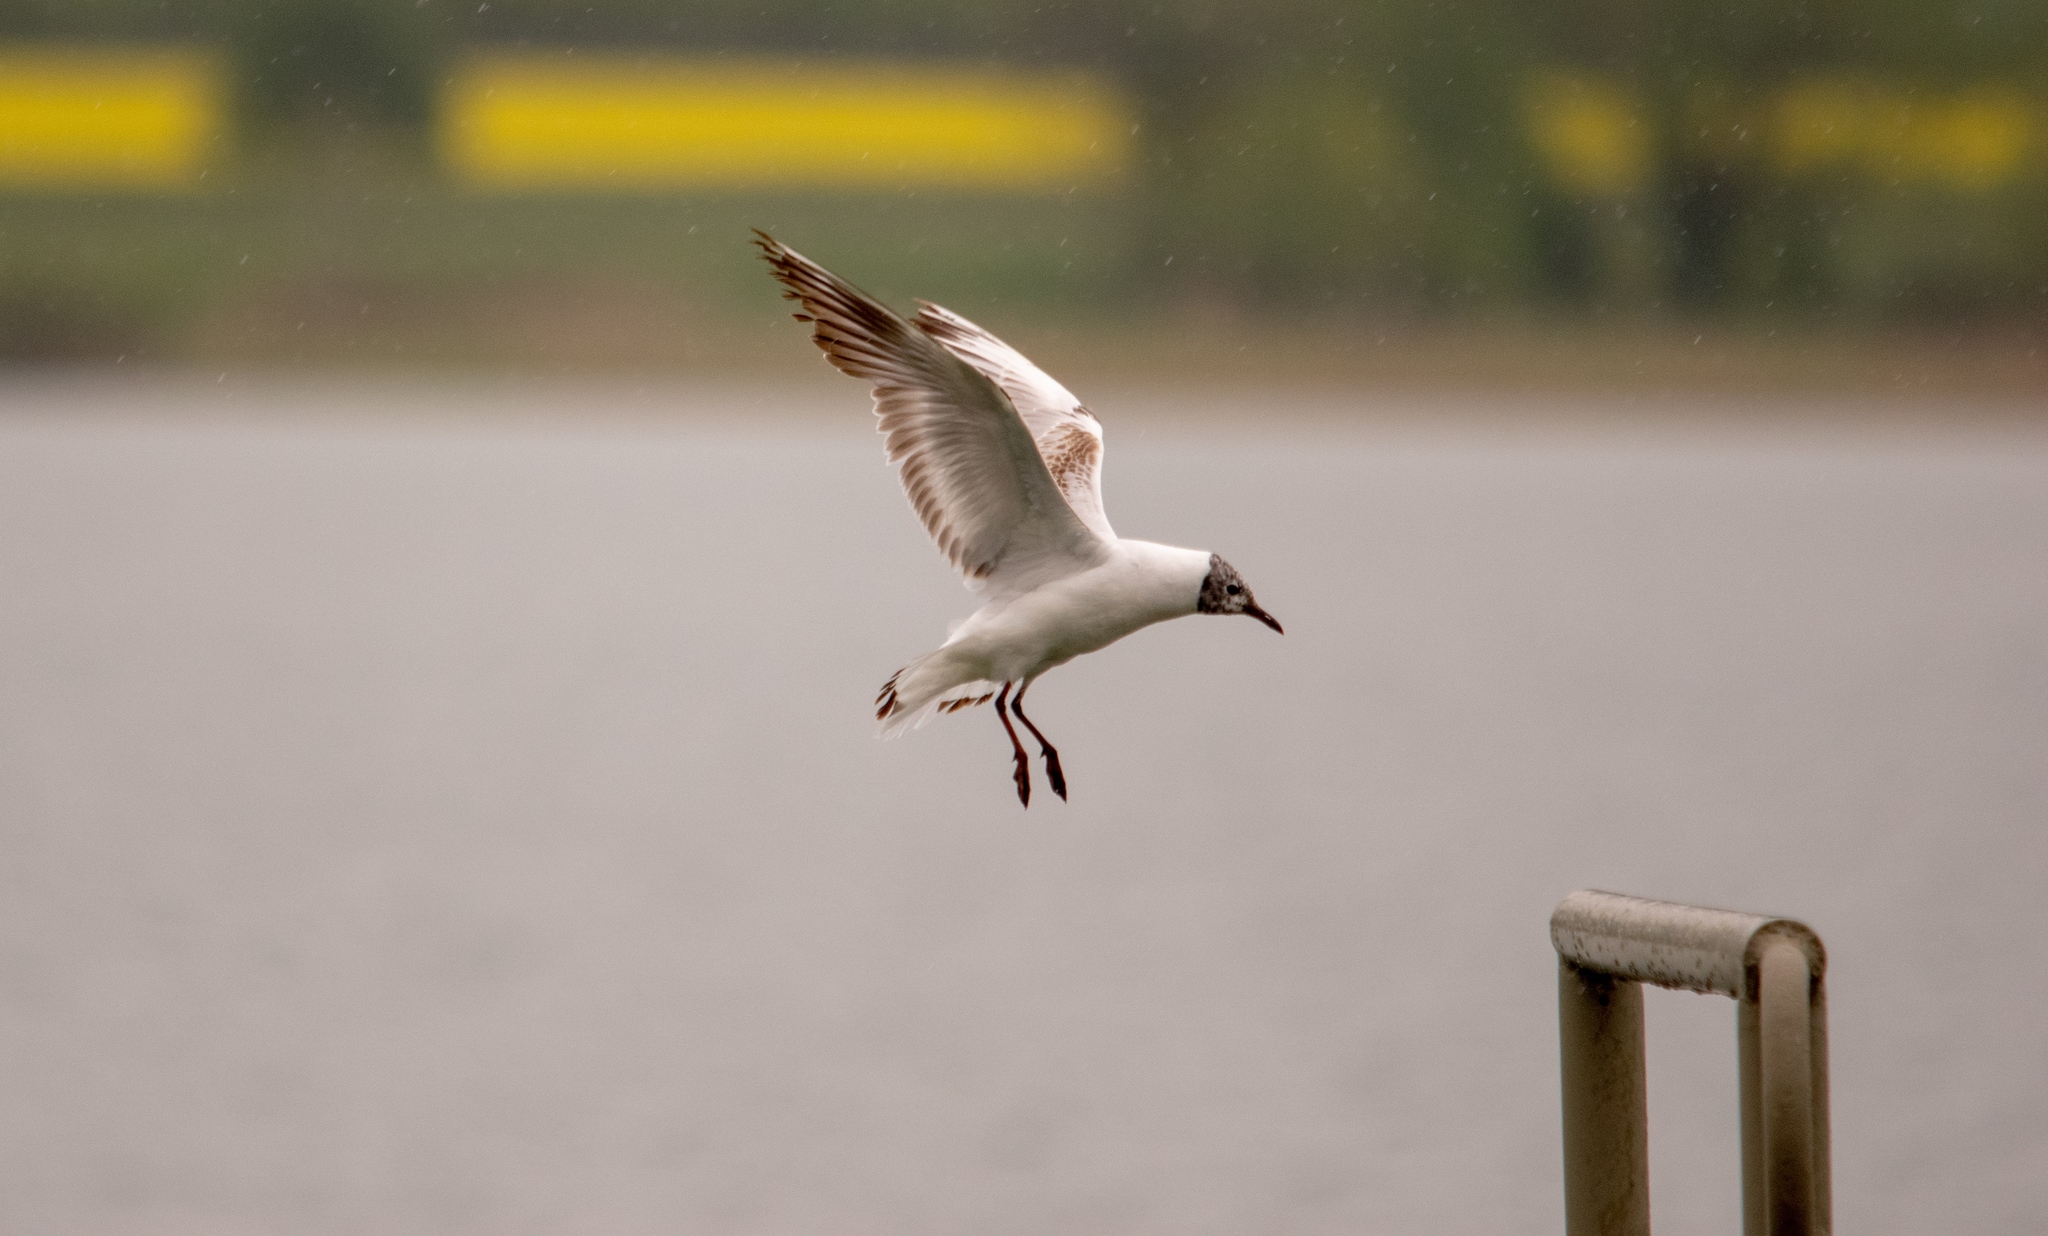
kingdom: Animalia
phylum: Chordata
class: Aves
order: Charadriiformes
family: Laridae
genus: Chroicocephalus
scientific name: Chroicocephalus ridibundus
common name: Black-headed gull
